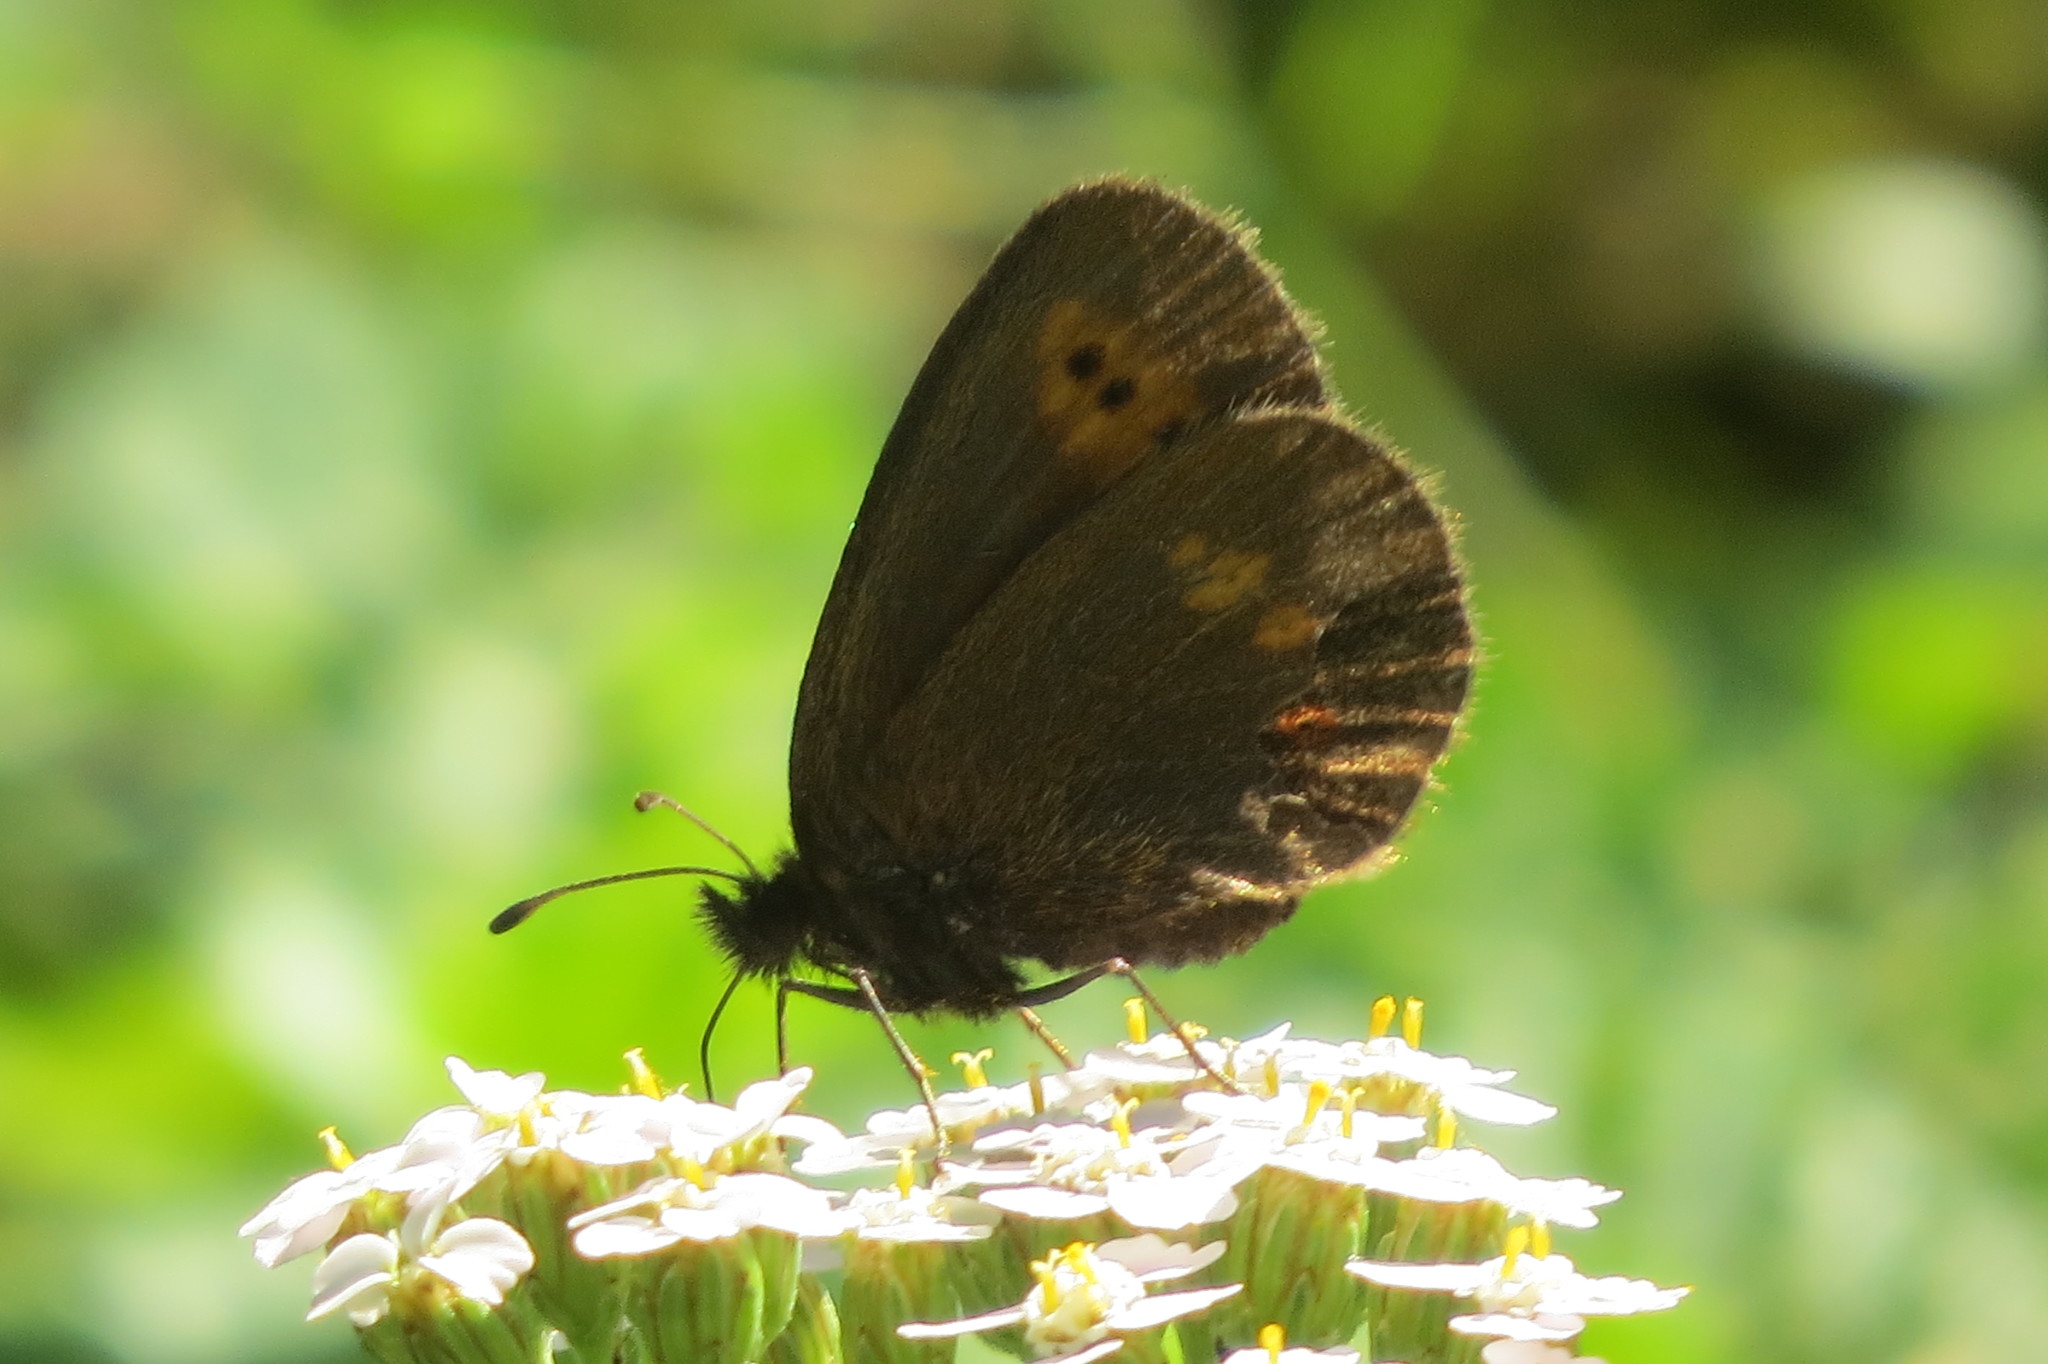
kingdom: Animalia
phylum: Arthropoda
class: Insecta
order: Lepidoptera
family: Nymphalidae
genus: Erebia
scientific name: Erebia melampus
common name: Lesser mountain ringlet
